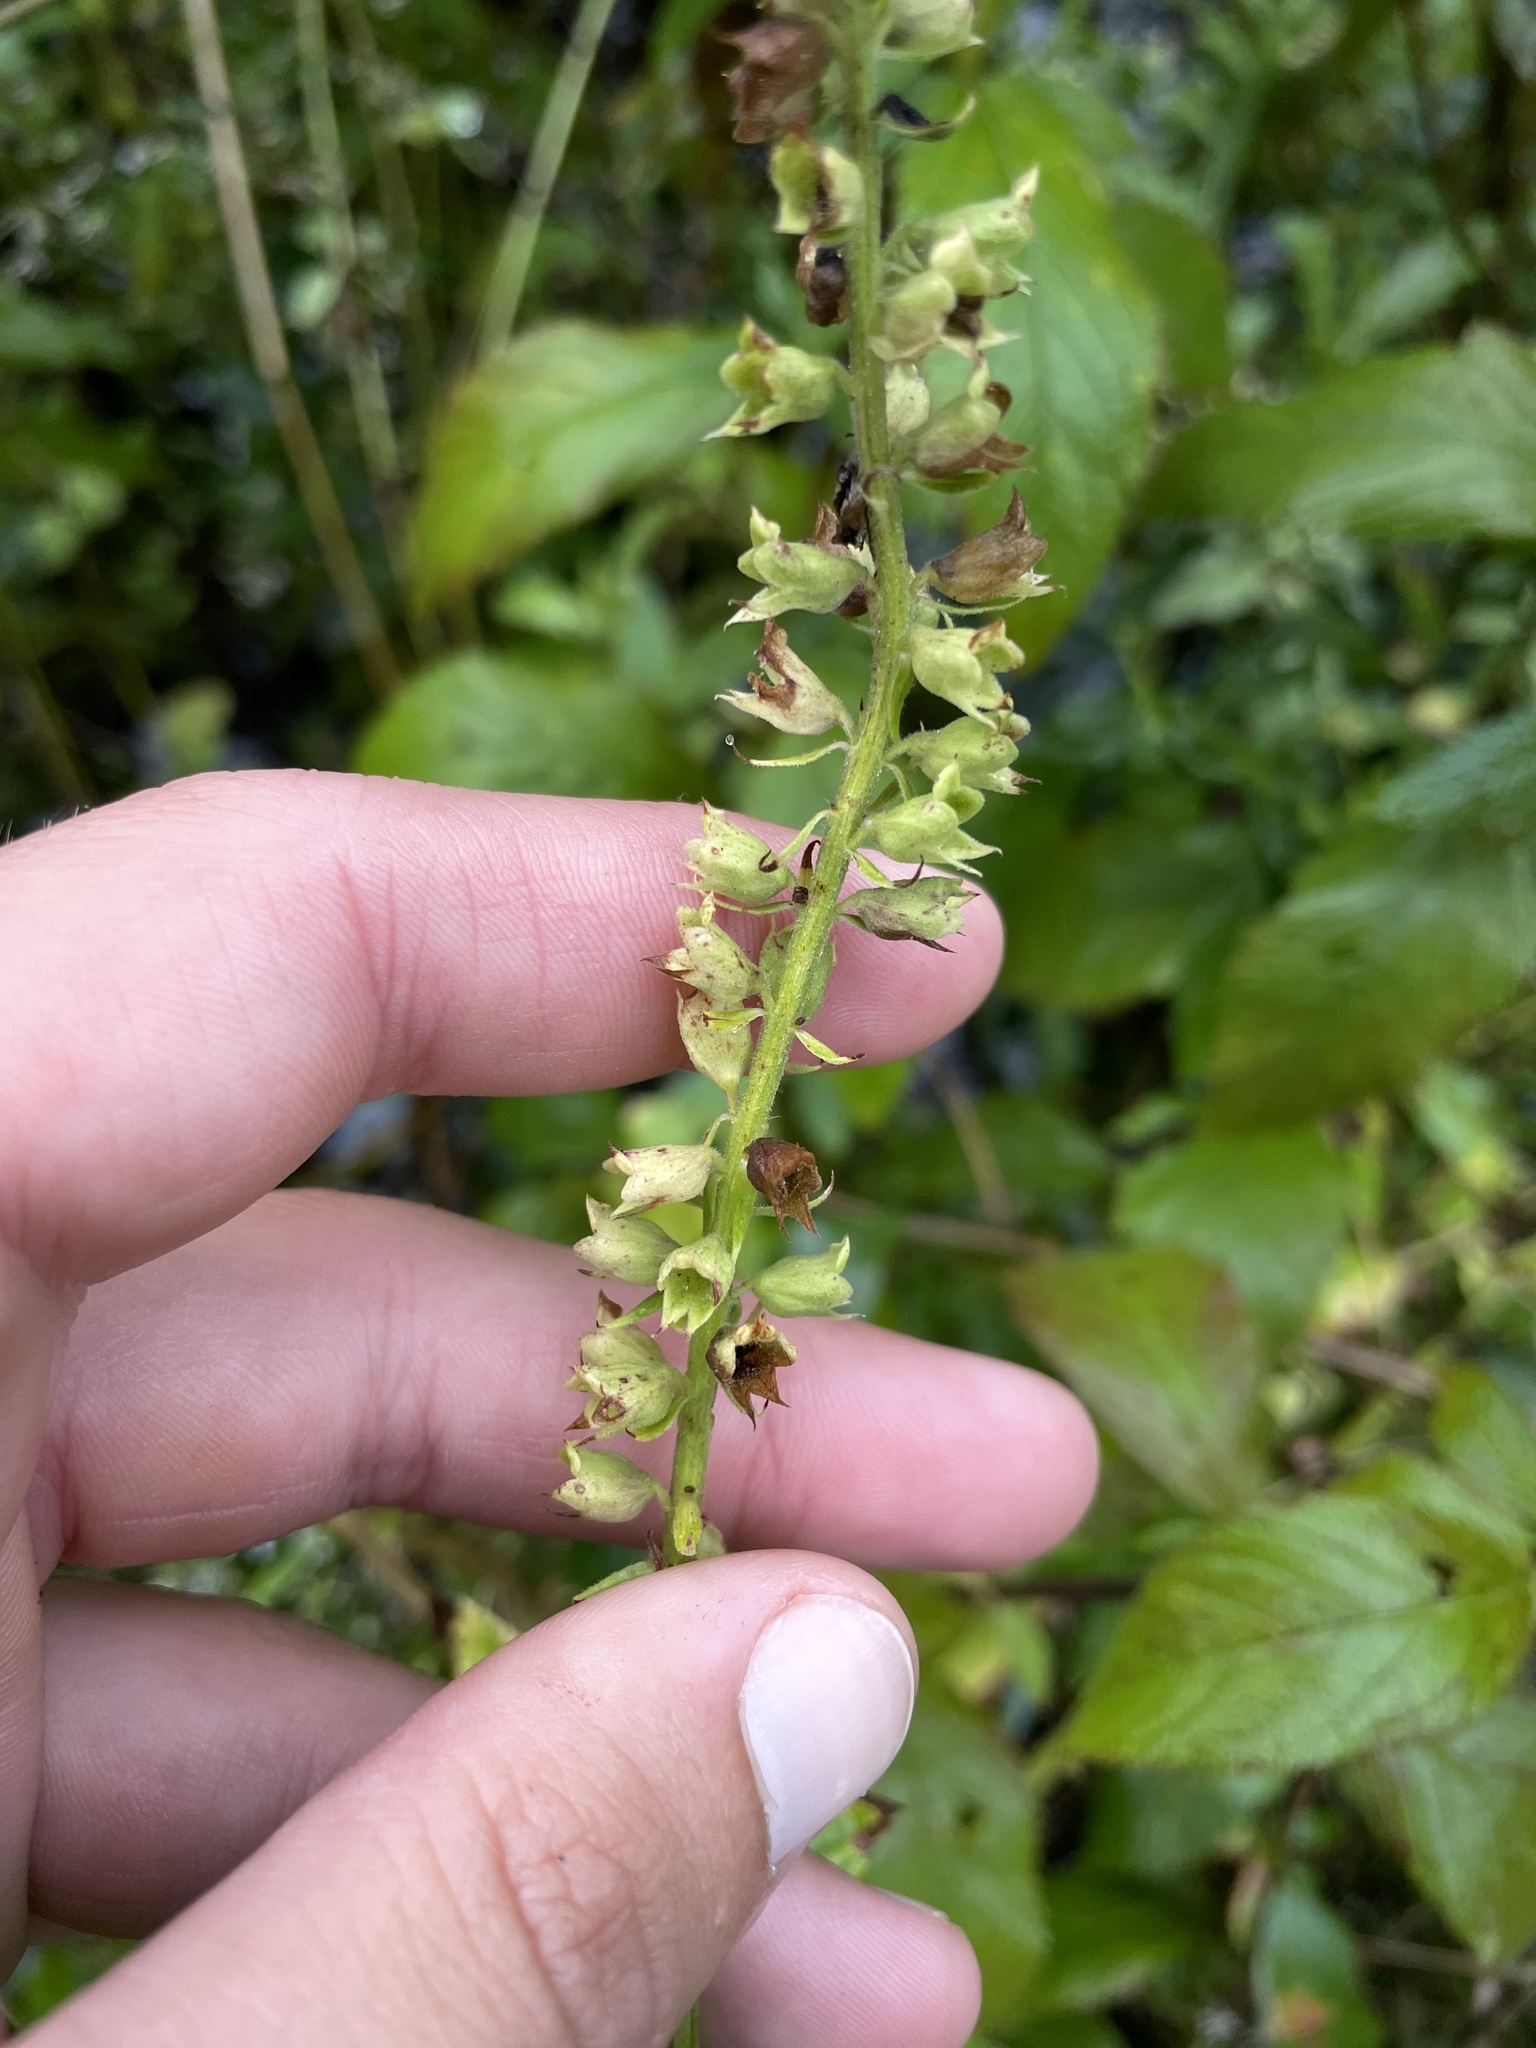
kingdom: Plantae
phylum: Tracheophyta
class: Magnoliopsida
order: Lamiales
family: Lamiaceae
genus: Teucrium
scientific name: Teucrium canadense
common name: American germander
